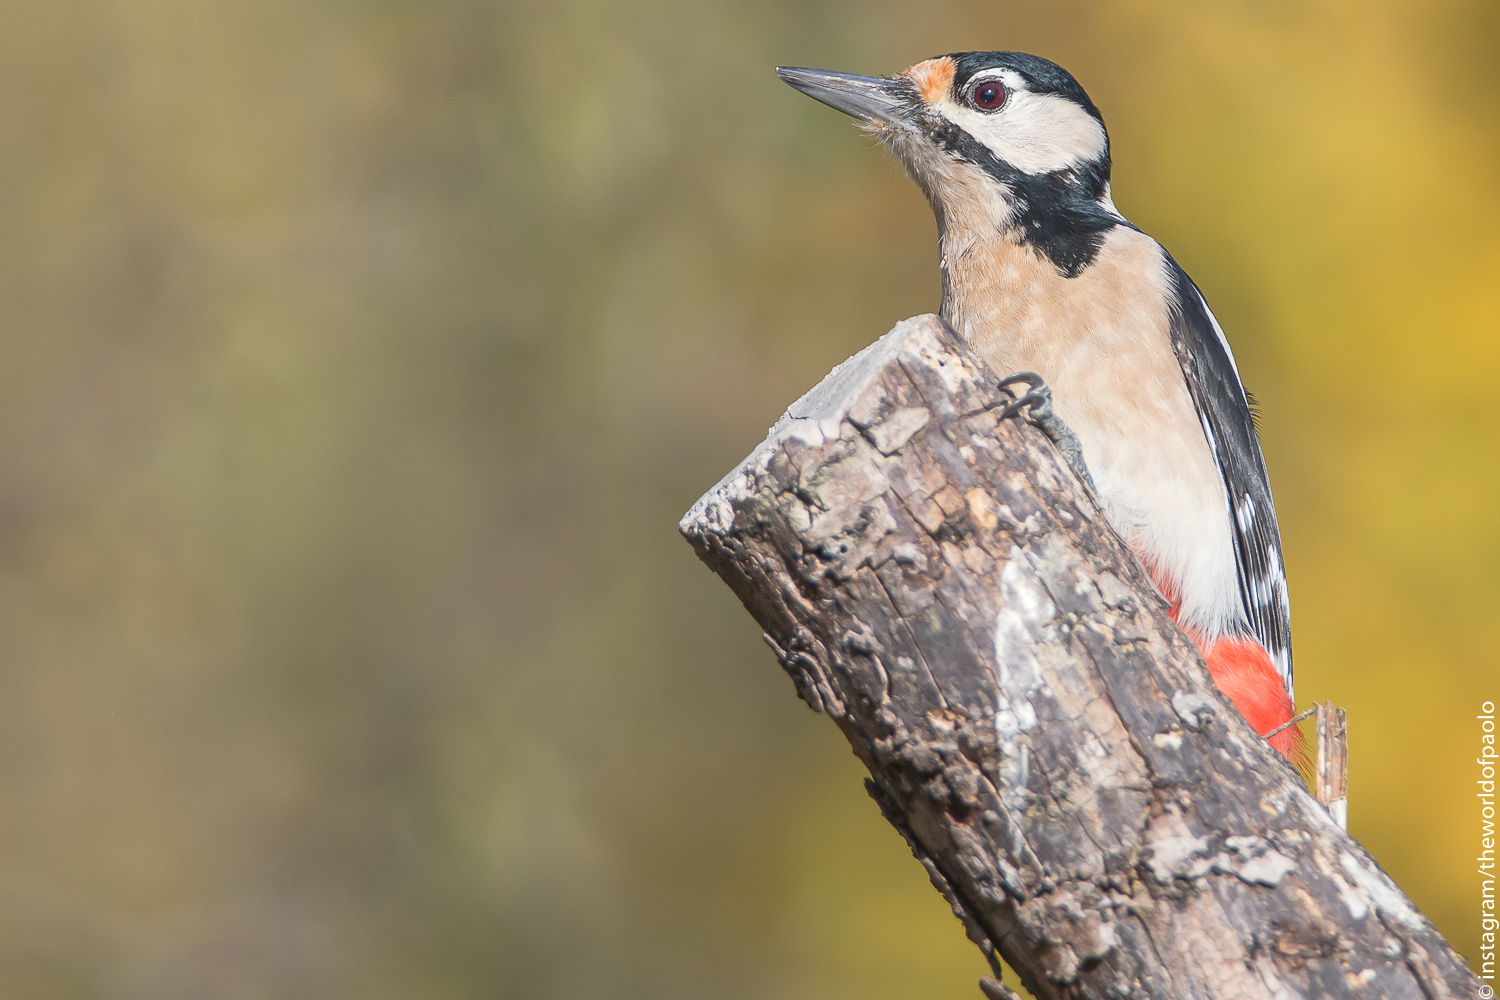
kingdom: Animalia
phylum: Chordata
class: Aves
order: Piciformes
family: Picidae
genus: Dendrocopos
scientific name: Dendrocopos major
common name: Great spotted woodpecker
